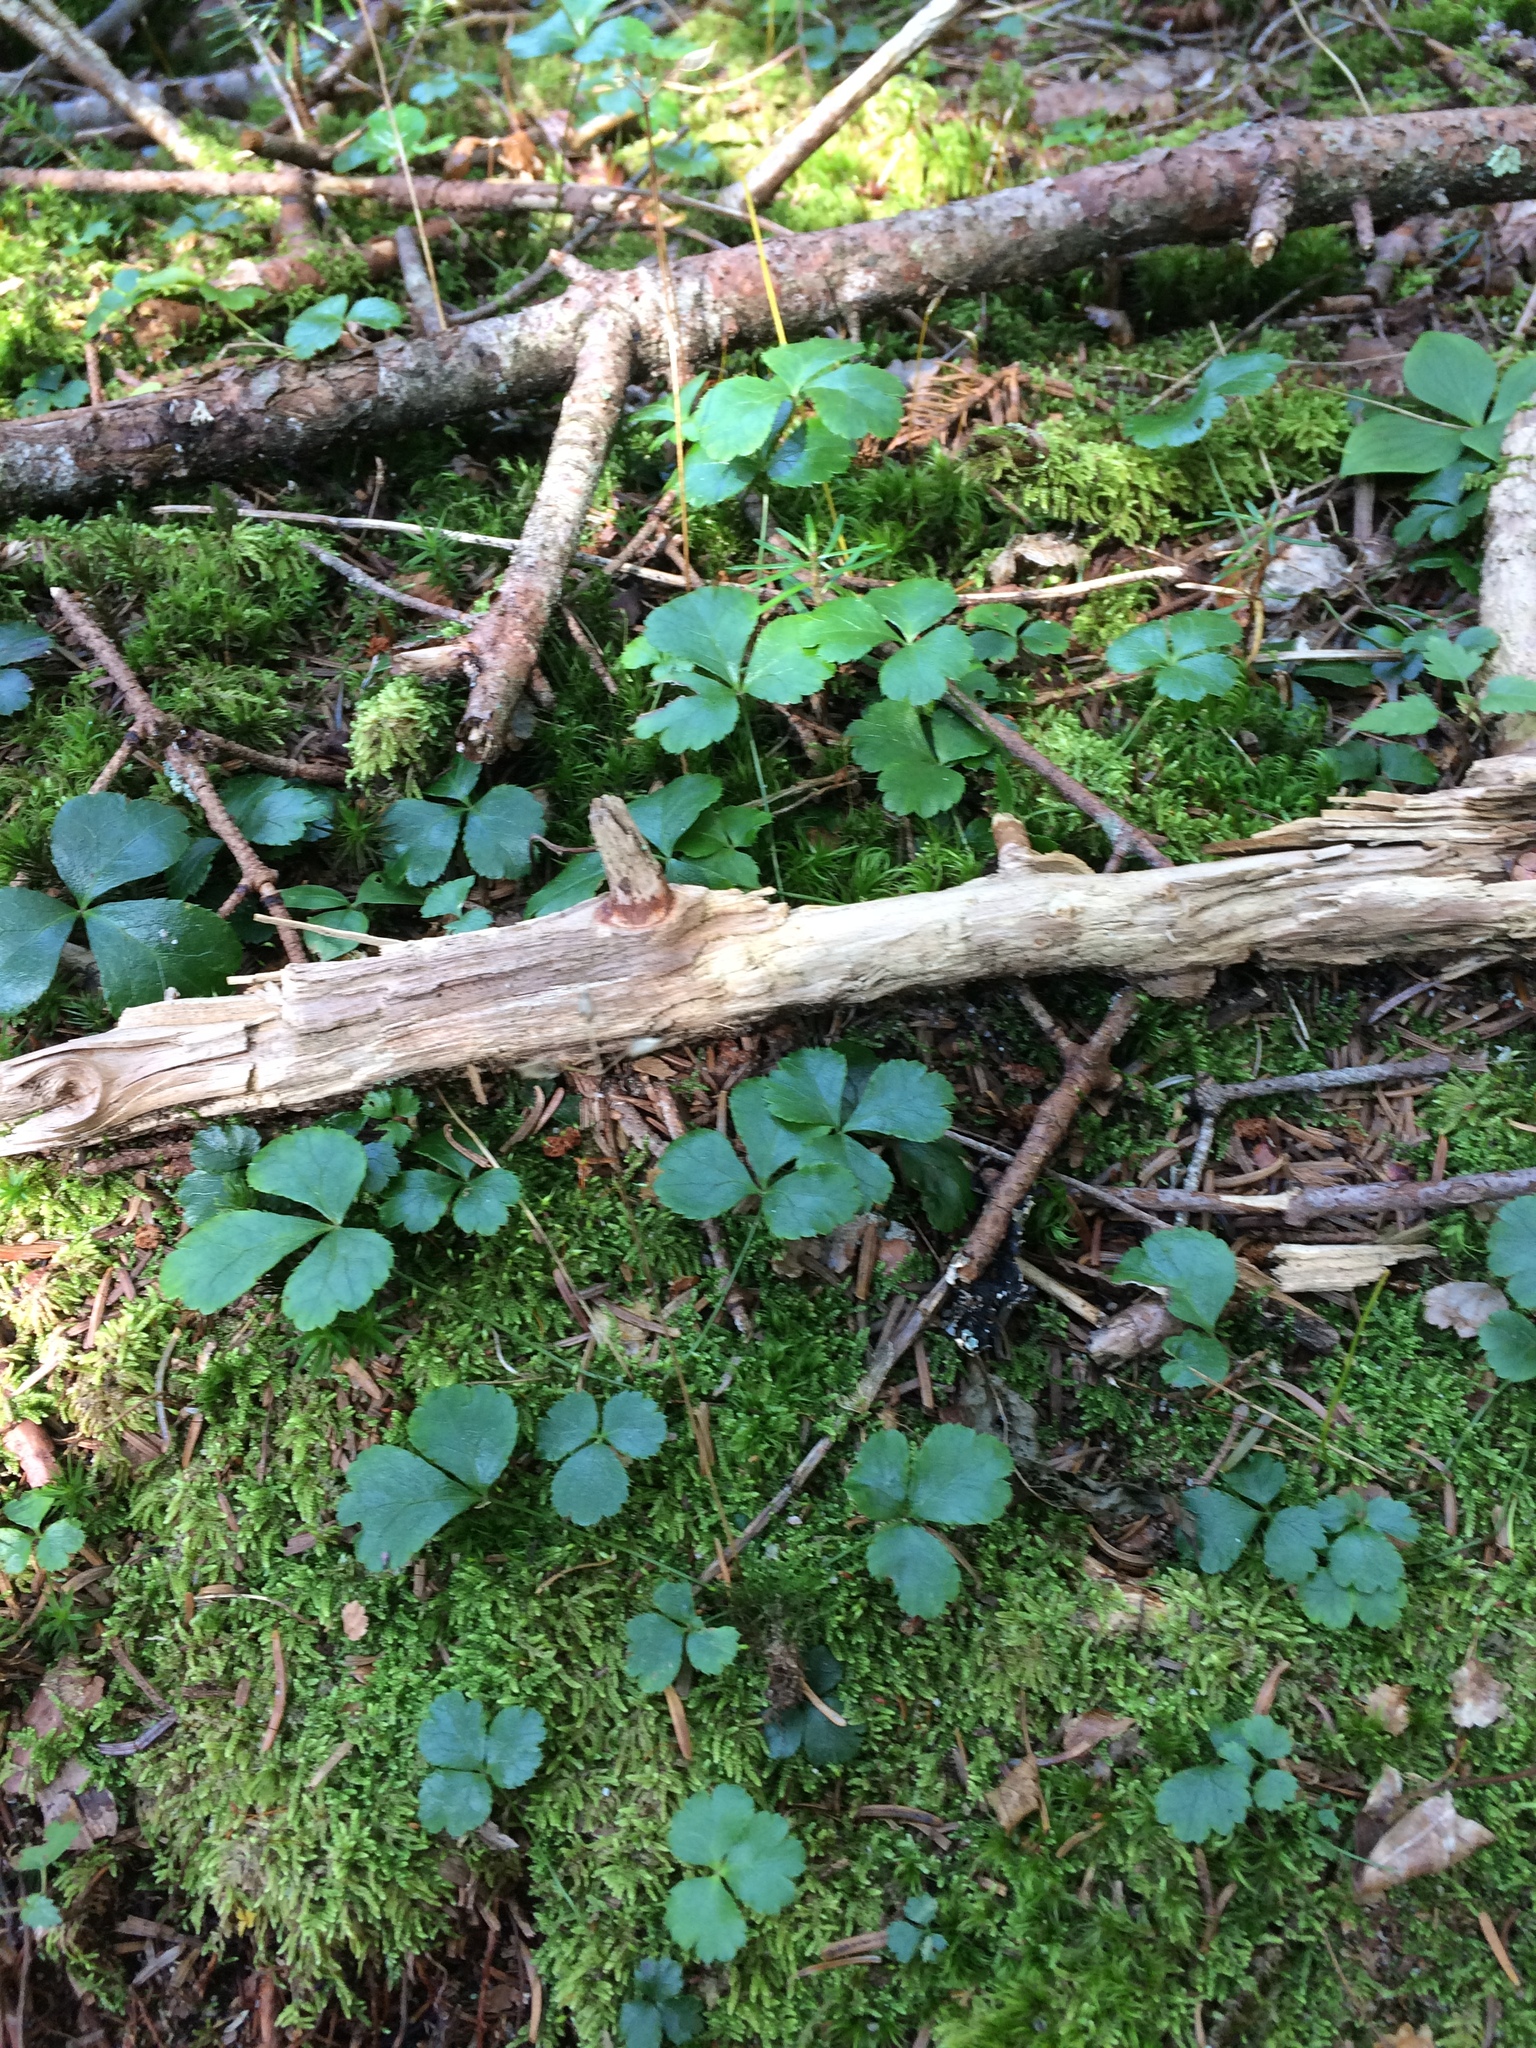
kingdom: Plantae
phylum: Tracheophyta
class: Magnoliopsida
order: Ranunculales
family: Ranunculaceae
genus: Coptis
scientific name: Coptis trifolia
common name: Canker-root
